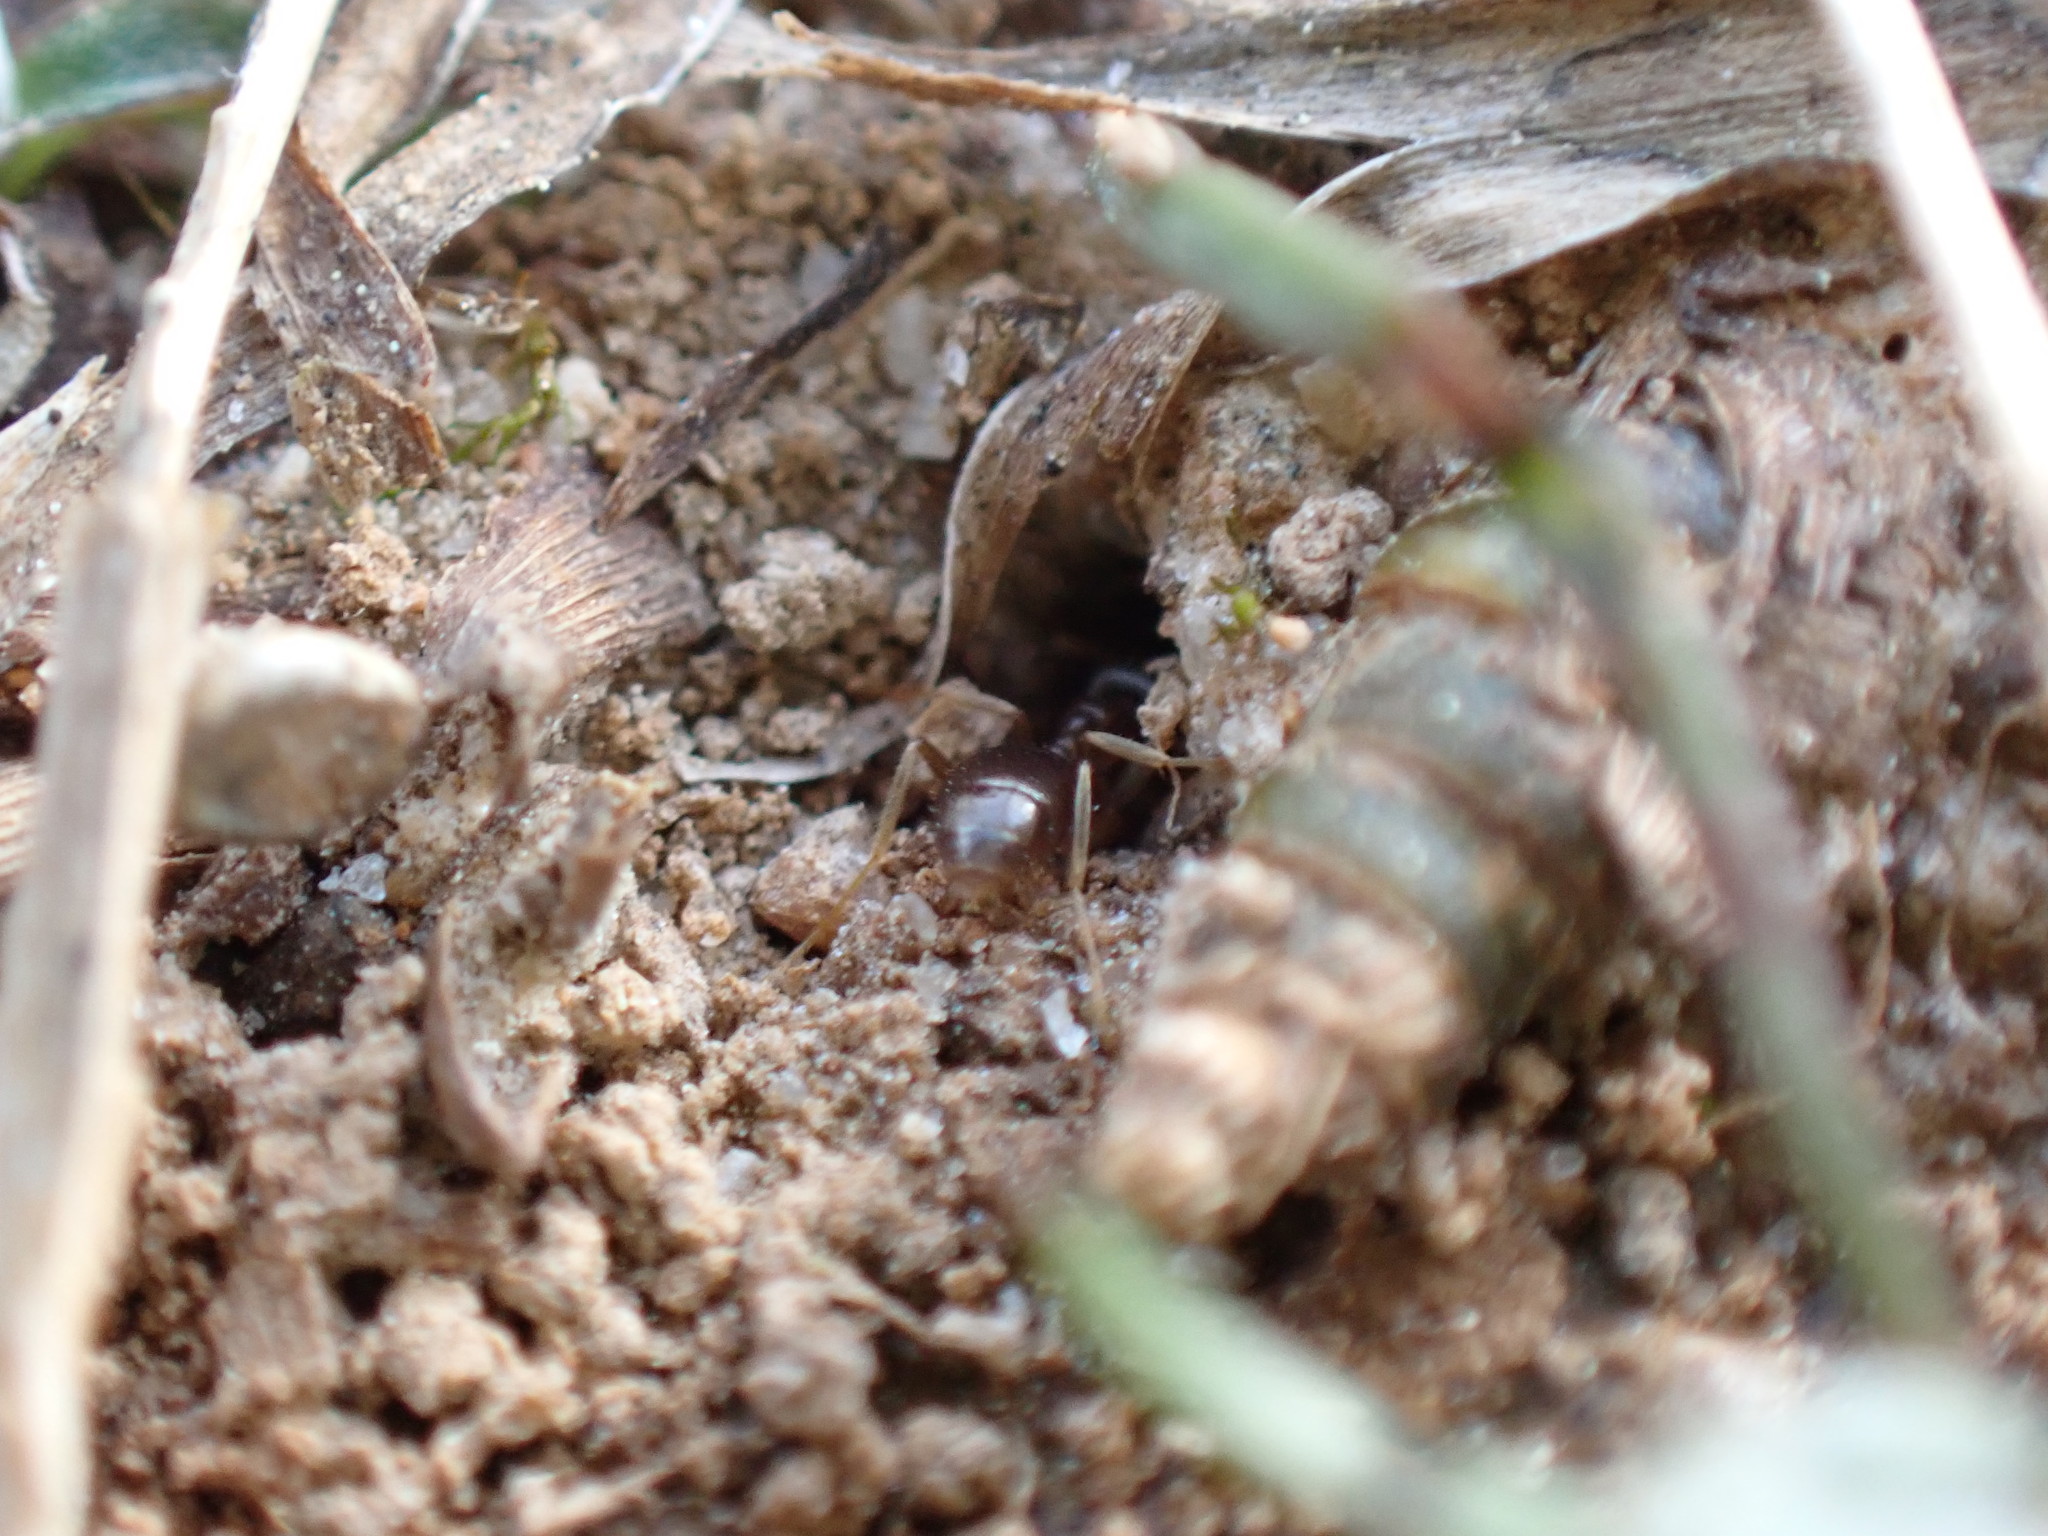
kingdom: Animalia
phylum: Arthropoda
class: Insecta
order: Hymenoptera
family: Formicidae
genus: Lasius
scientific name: Lasius neoniger
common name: Turfgrass ant
